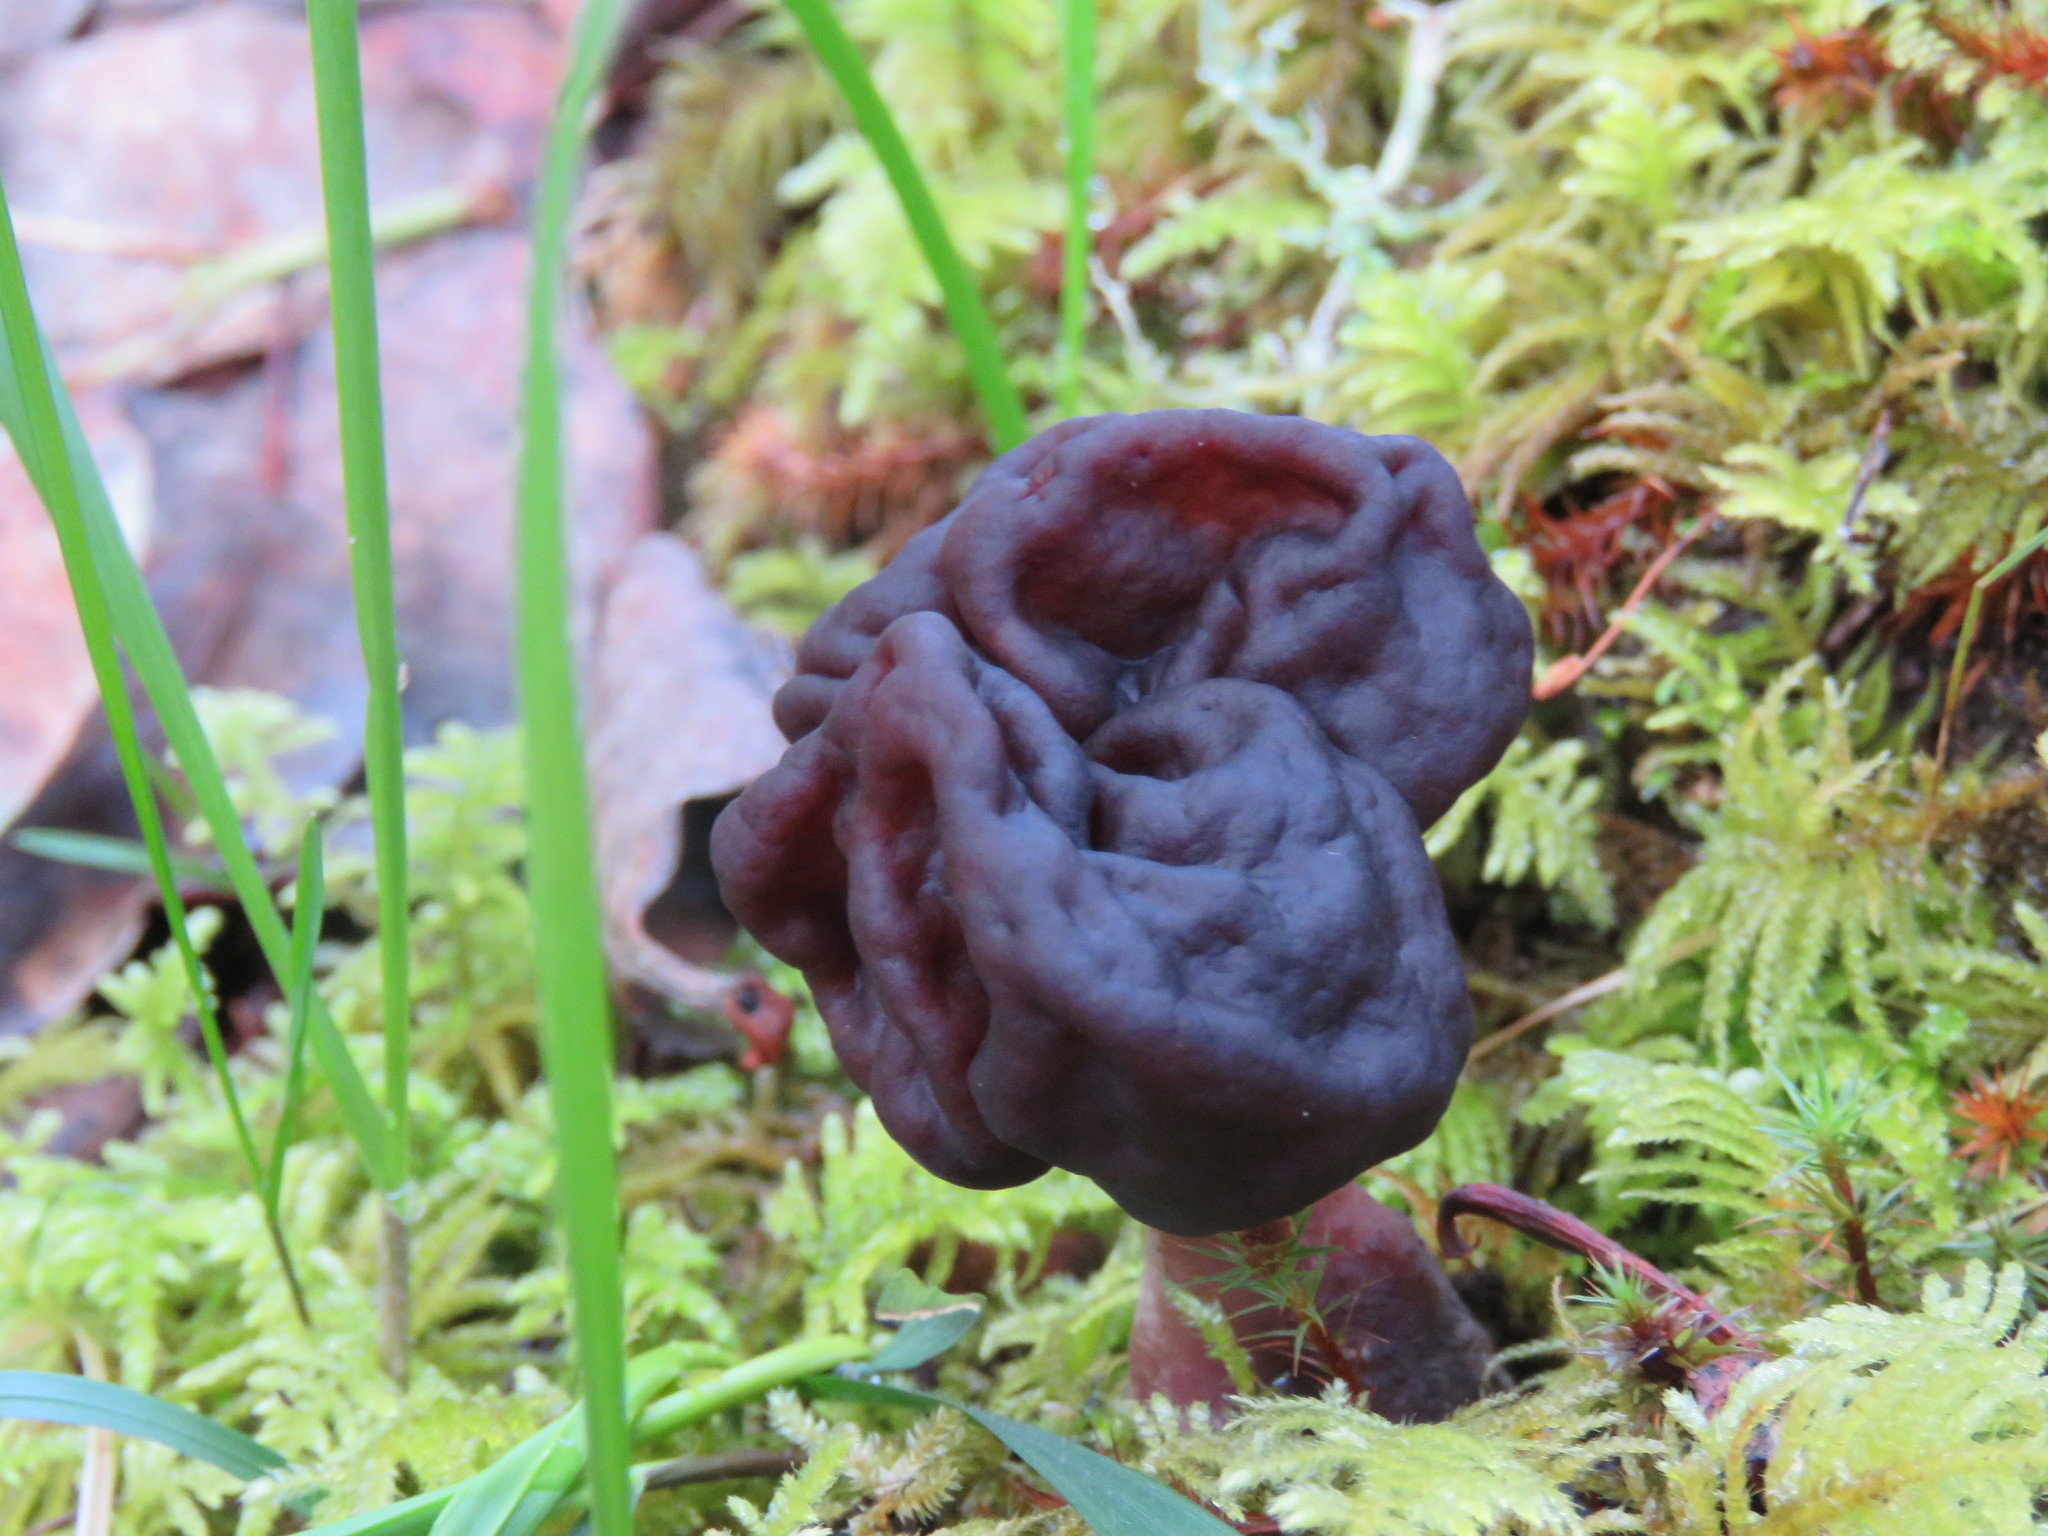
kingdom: Fungi
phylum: Ascomycota
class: Pezizomycetes
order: Pezizales
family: Discinaceae
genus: Gyromitra
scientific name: Gyromitra esculenta
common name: False morel
